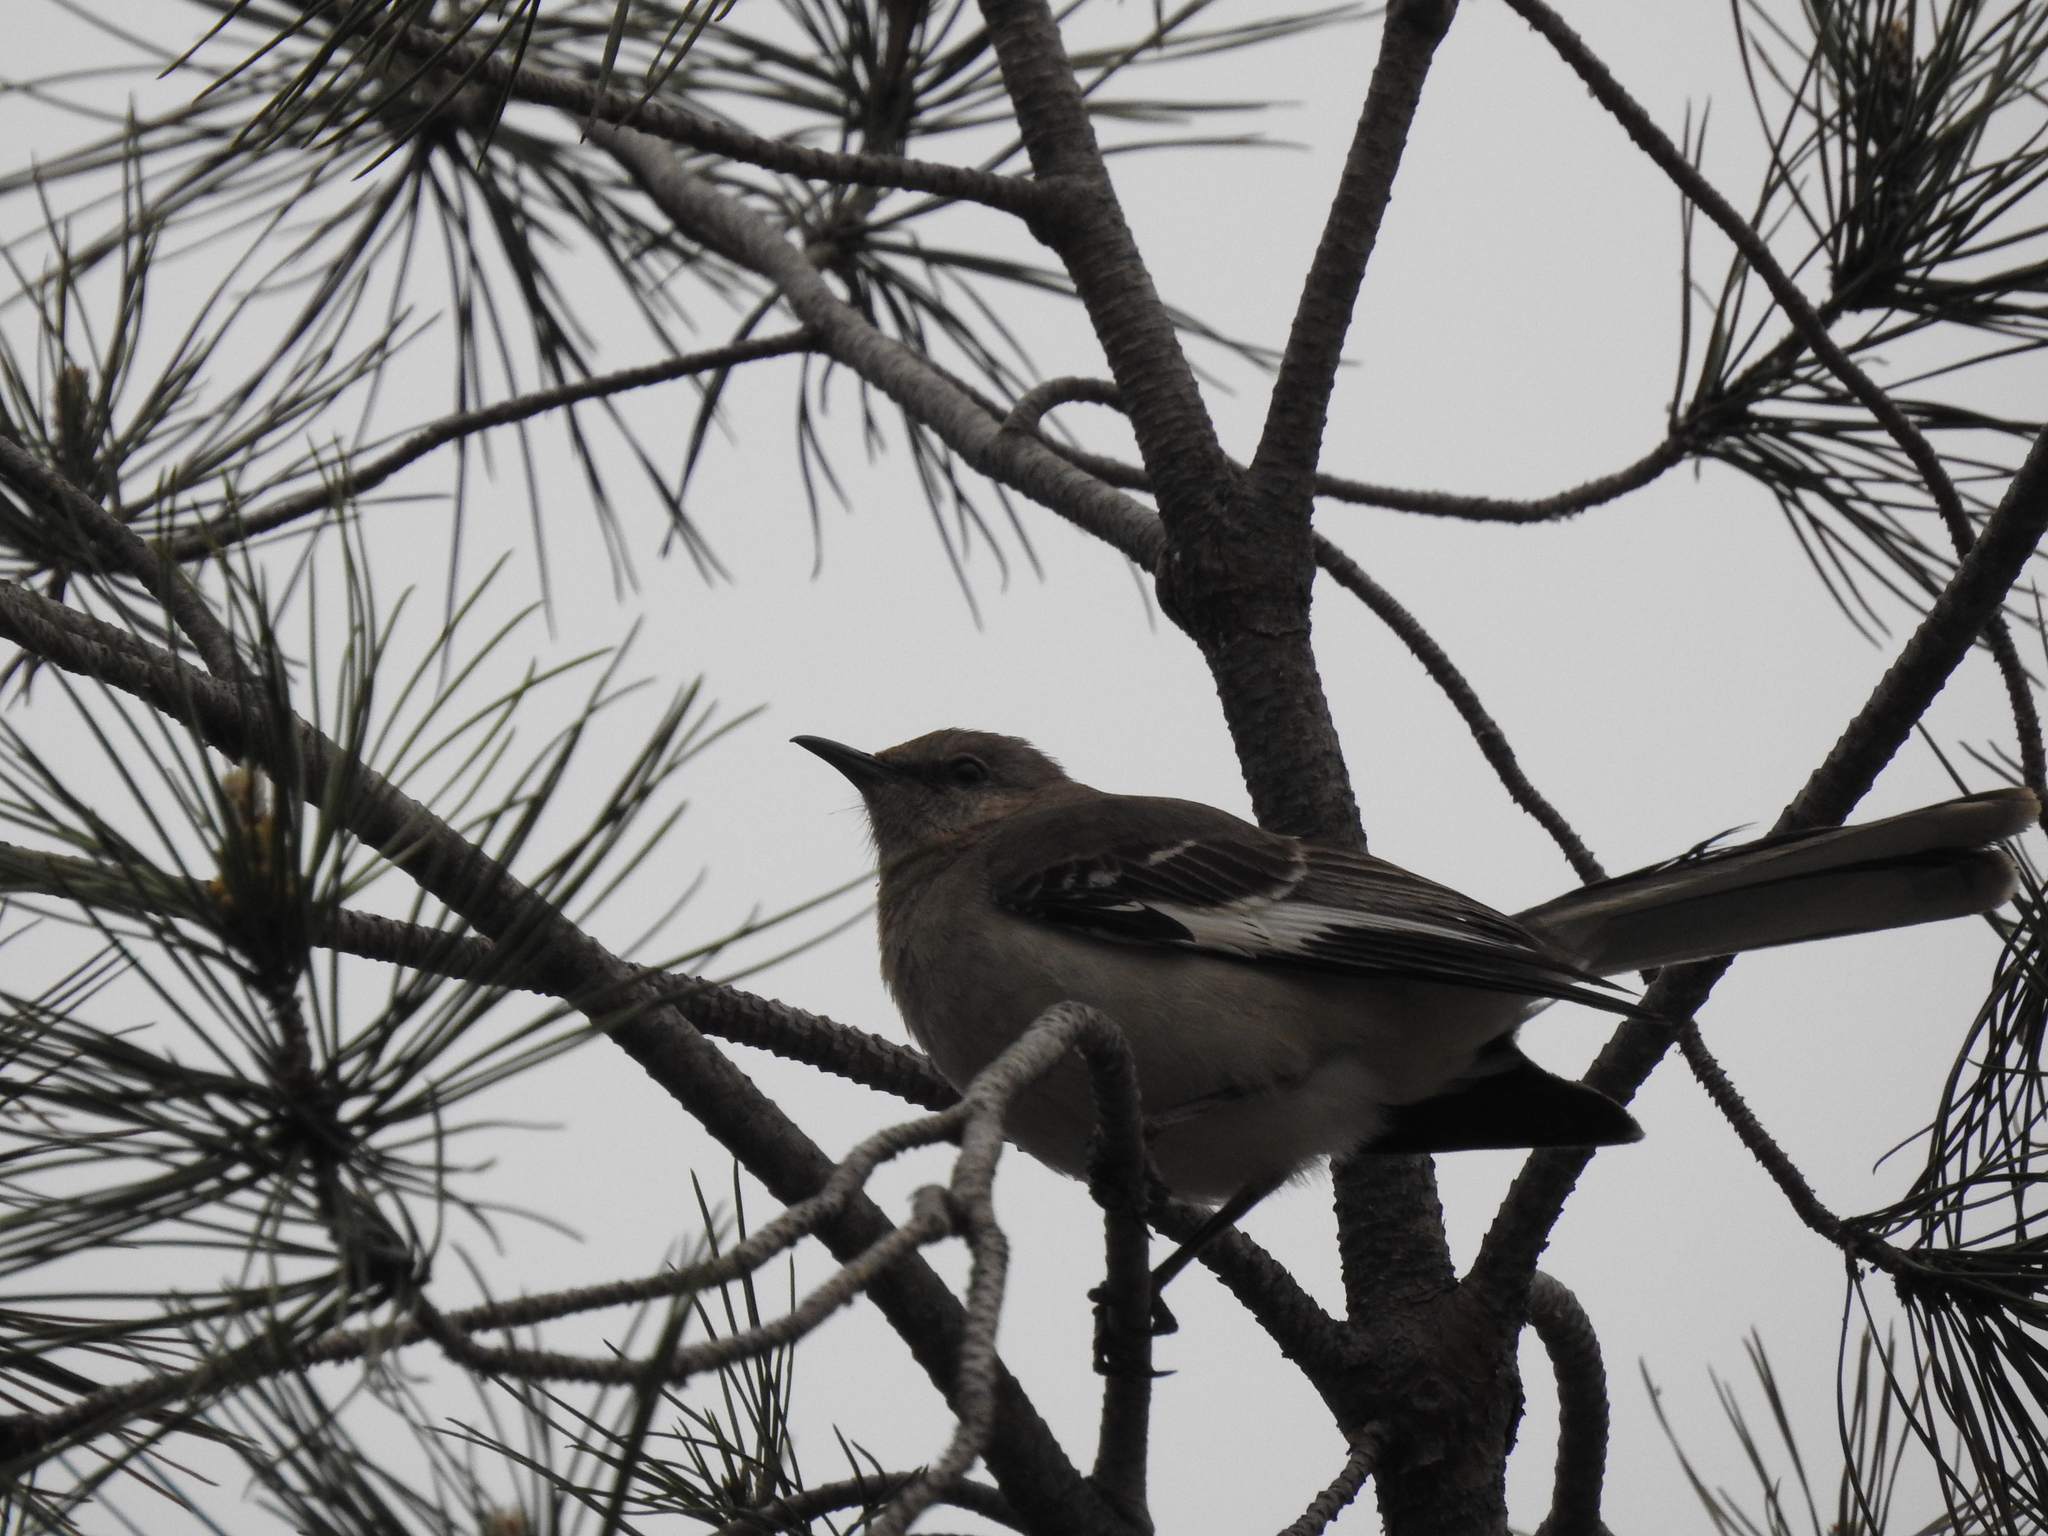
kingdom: Animalia
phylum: Chordata
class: Aves
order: Passeriformes
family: Mimidae
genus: Mimus
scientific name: Mimus polyglottos
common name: Northern mockingbird
